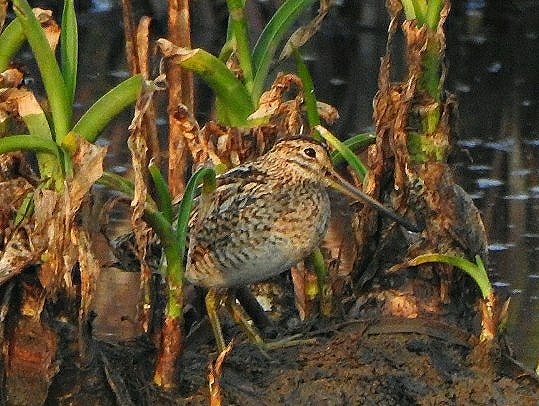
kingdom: Animalia
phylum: Chordata
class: Aves
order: Charadriiformes
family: Scolopacidae
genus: Gallinago
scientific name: Gallinago gallinago
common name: Common snipe
